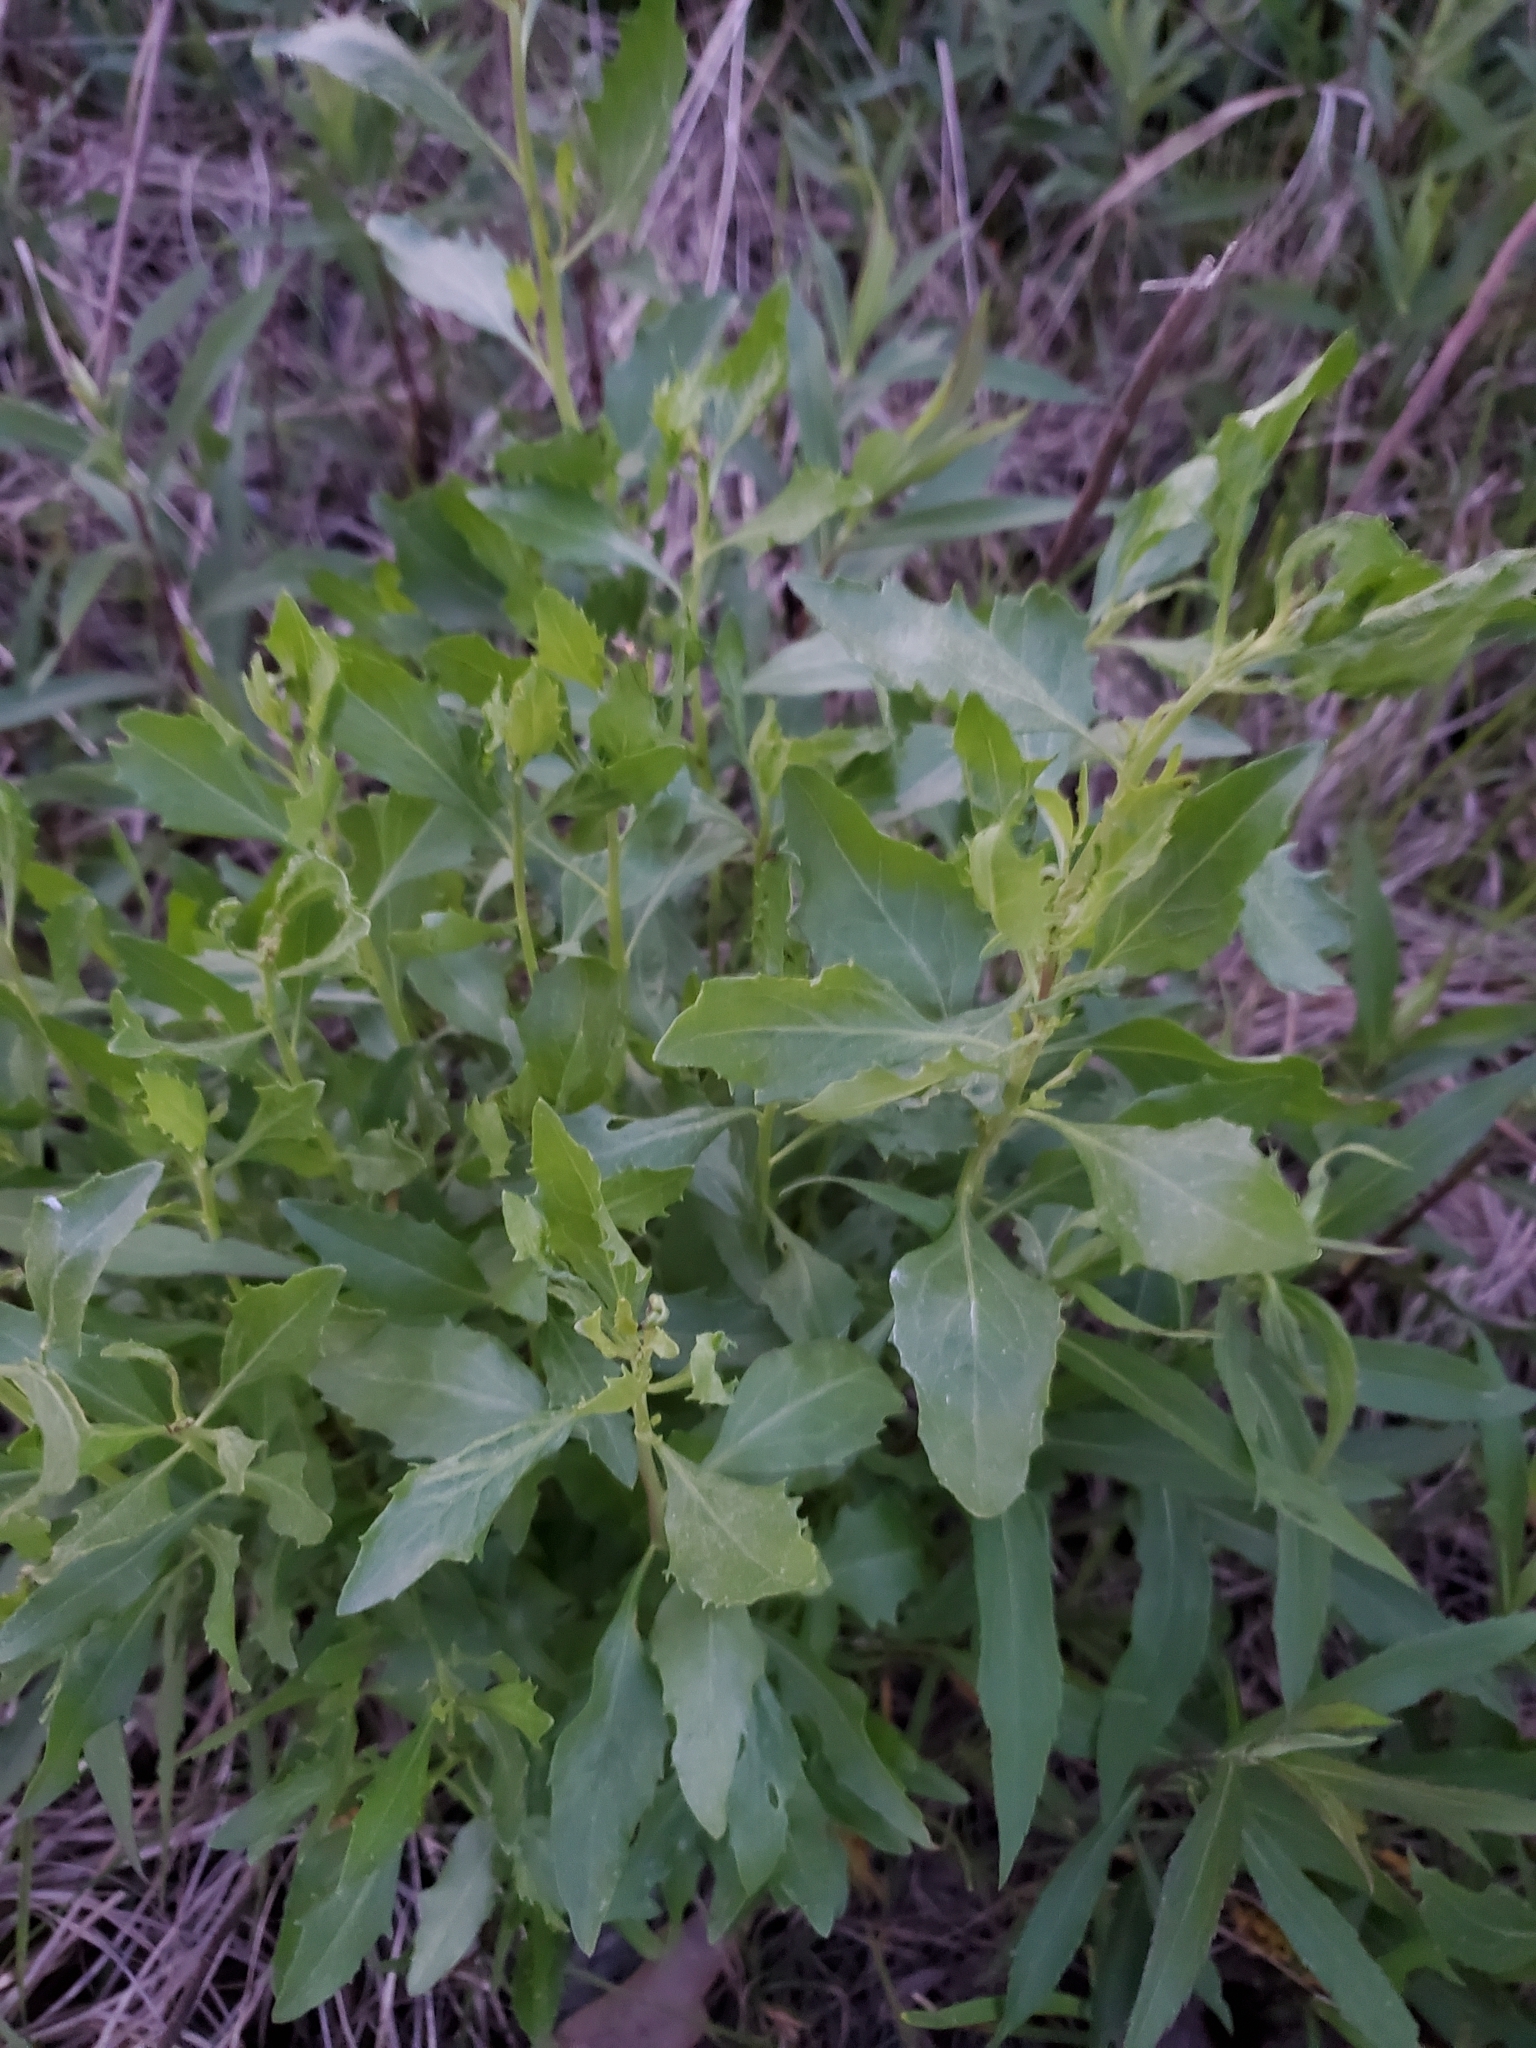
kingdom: Plantae
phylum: Tracheophyta
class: Magnoliopsida
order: Asterales
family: Asteraceae
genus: Baccharis
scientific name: Baccharis halimifolia
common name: Eastern baccharis
